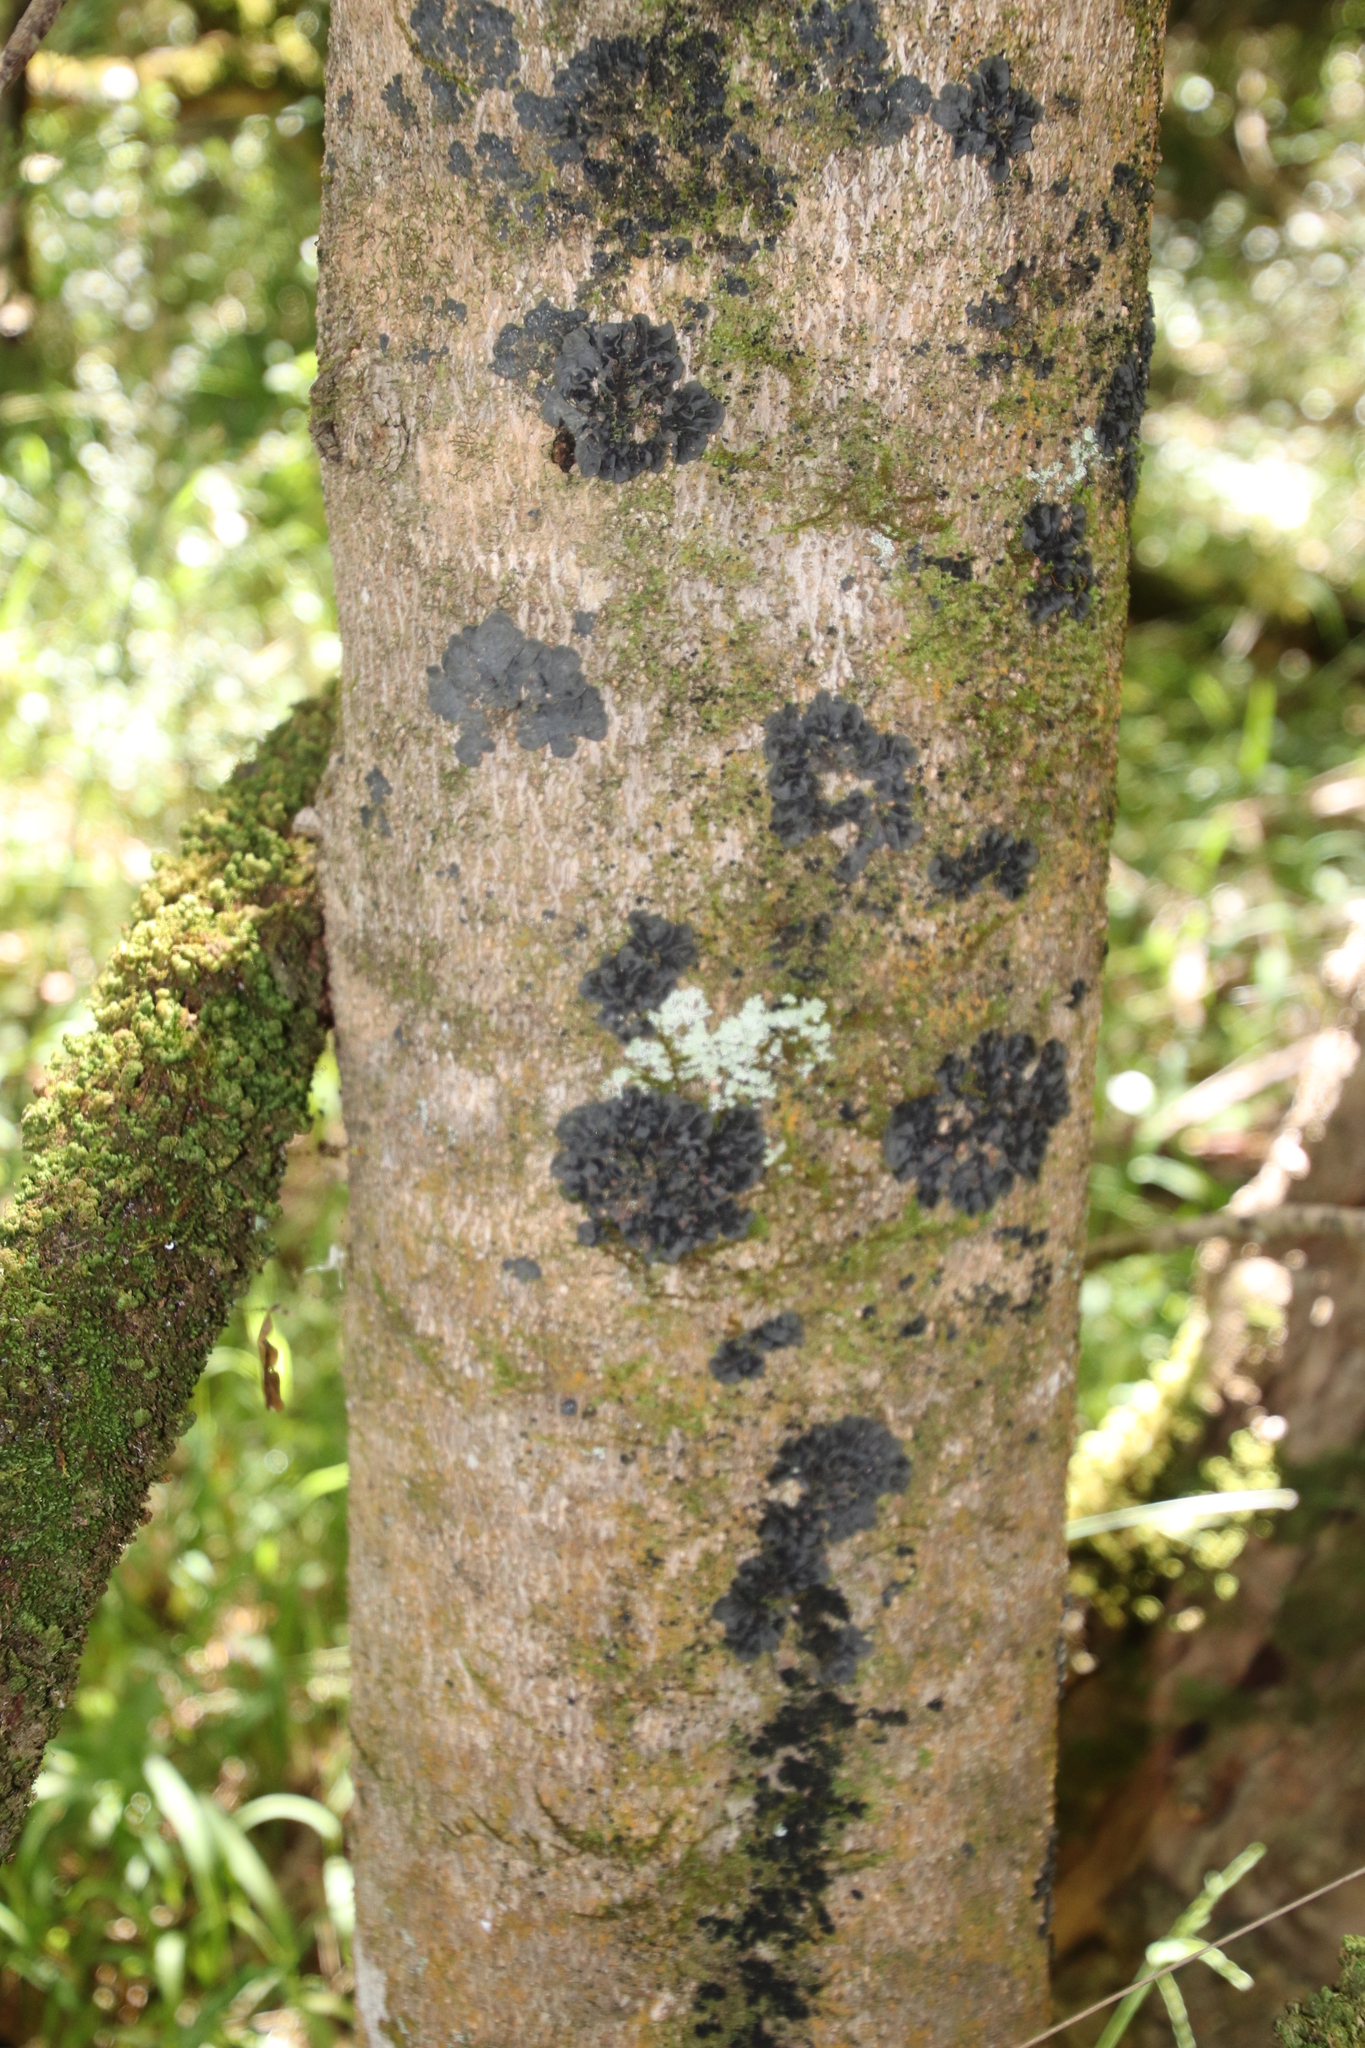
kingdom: Plantae
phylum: Tracheophyta
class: Magnoliopsida
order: Ericales
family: Sapotaceae
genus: Sideroxylon
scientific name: Sideroxylon inerme
